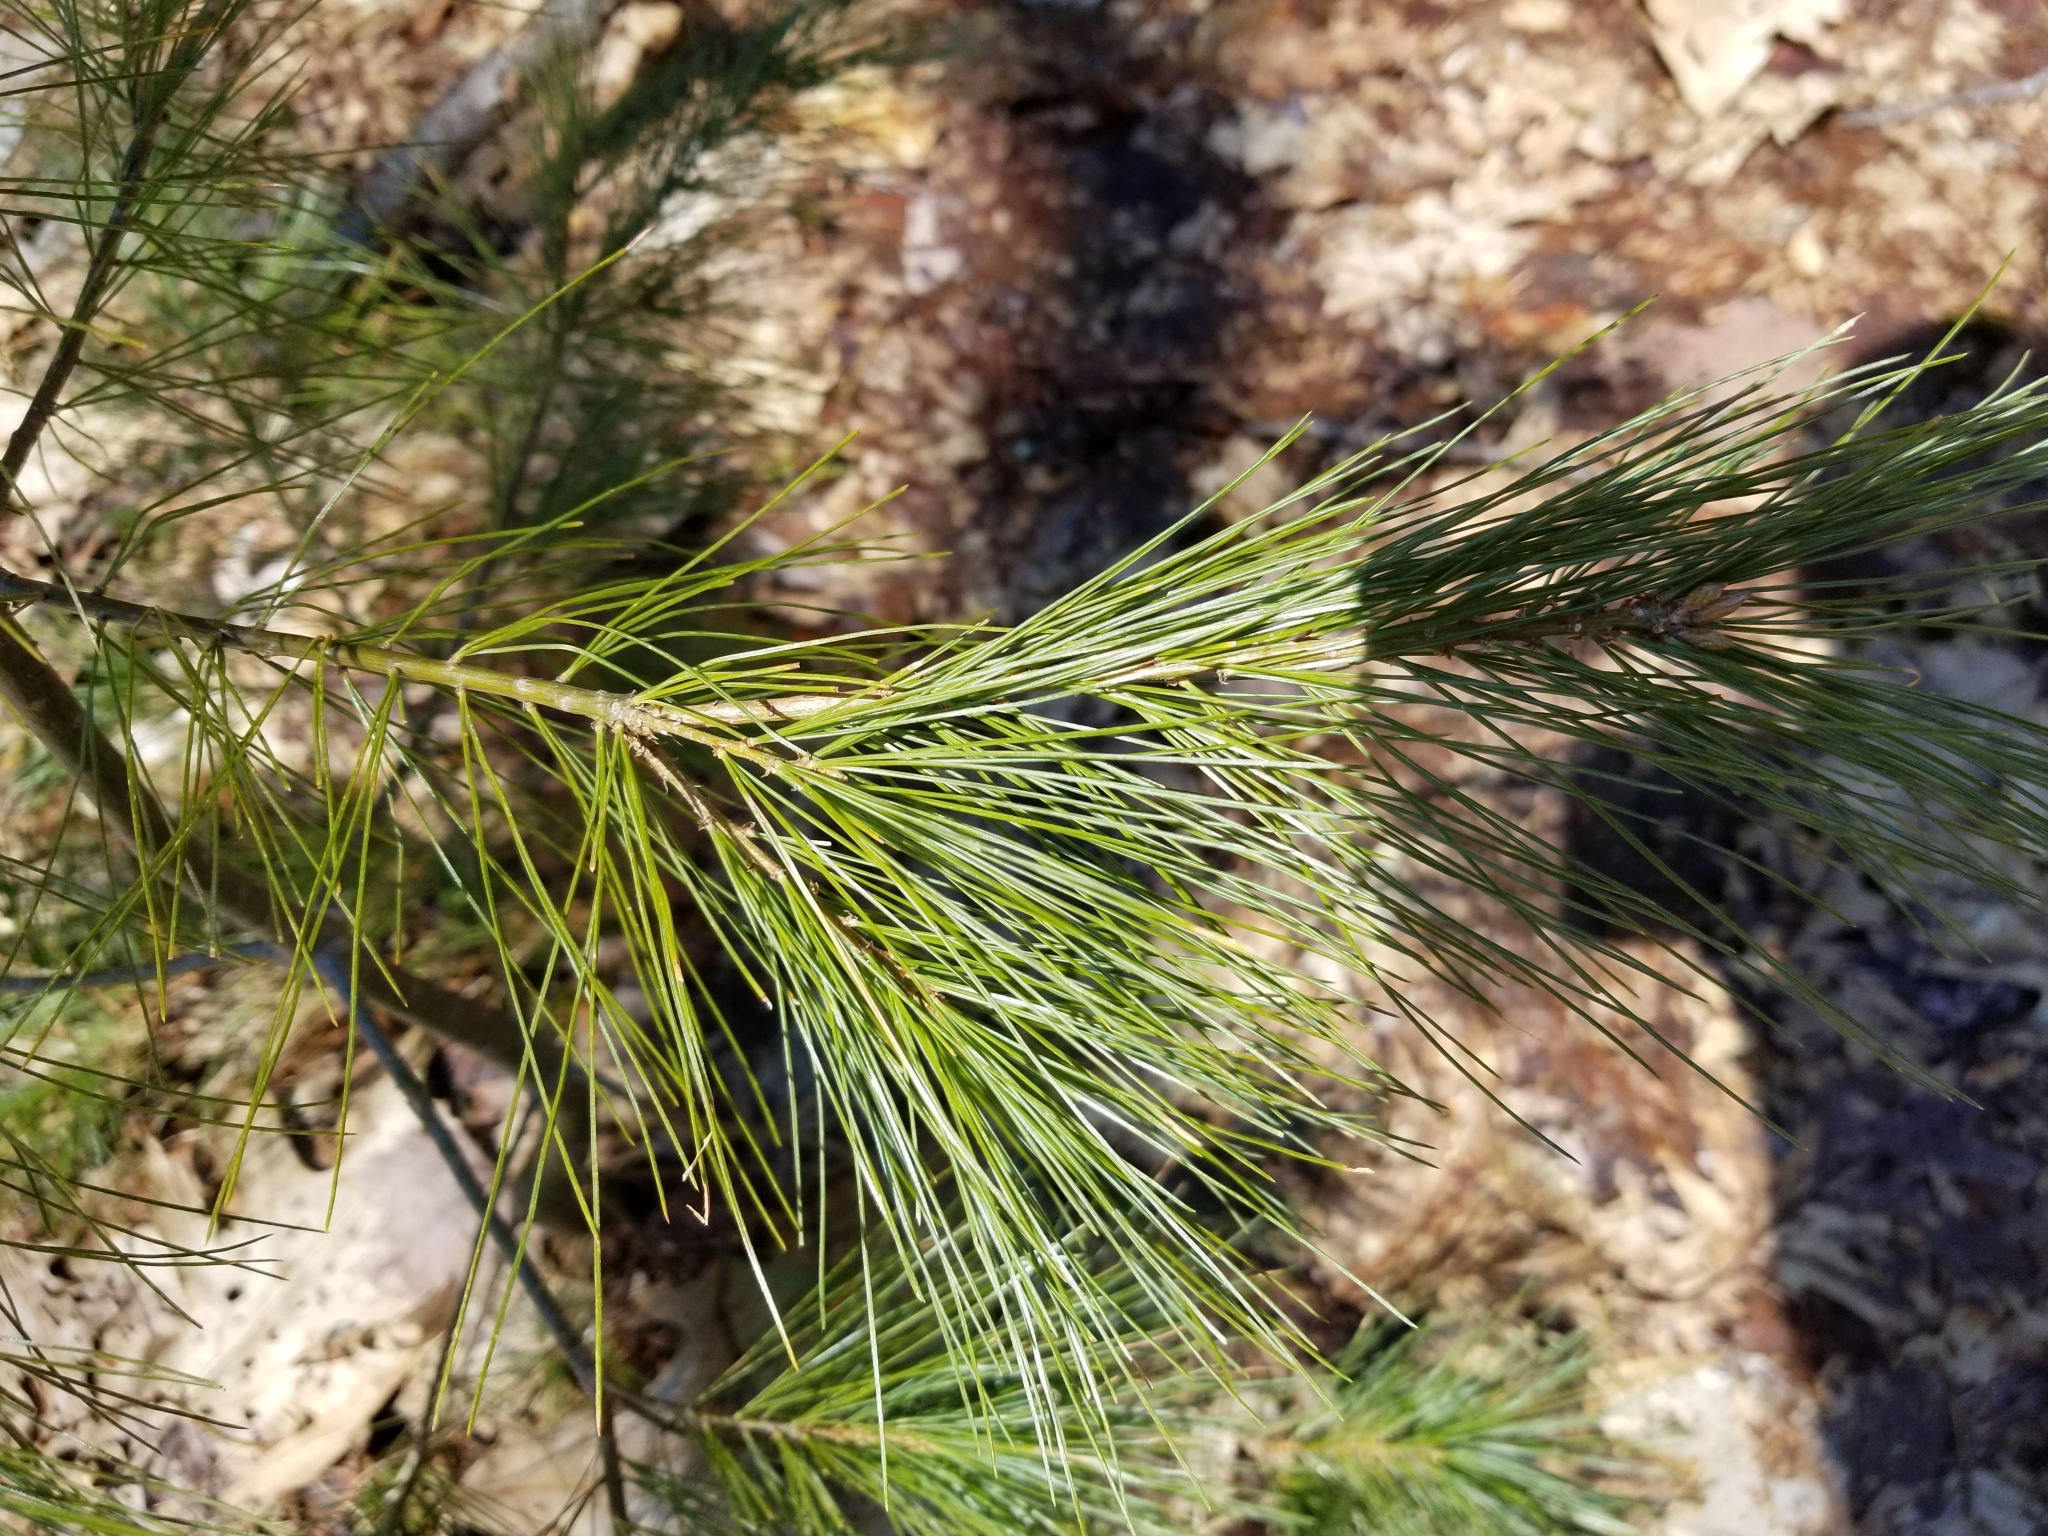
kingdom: Plantae
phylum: Tracheophyta
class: Pinopsida
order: Pinales
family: Pinaceae
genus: Pinus
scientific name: Pinus strobus
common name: Weymouth pine
